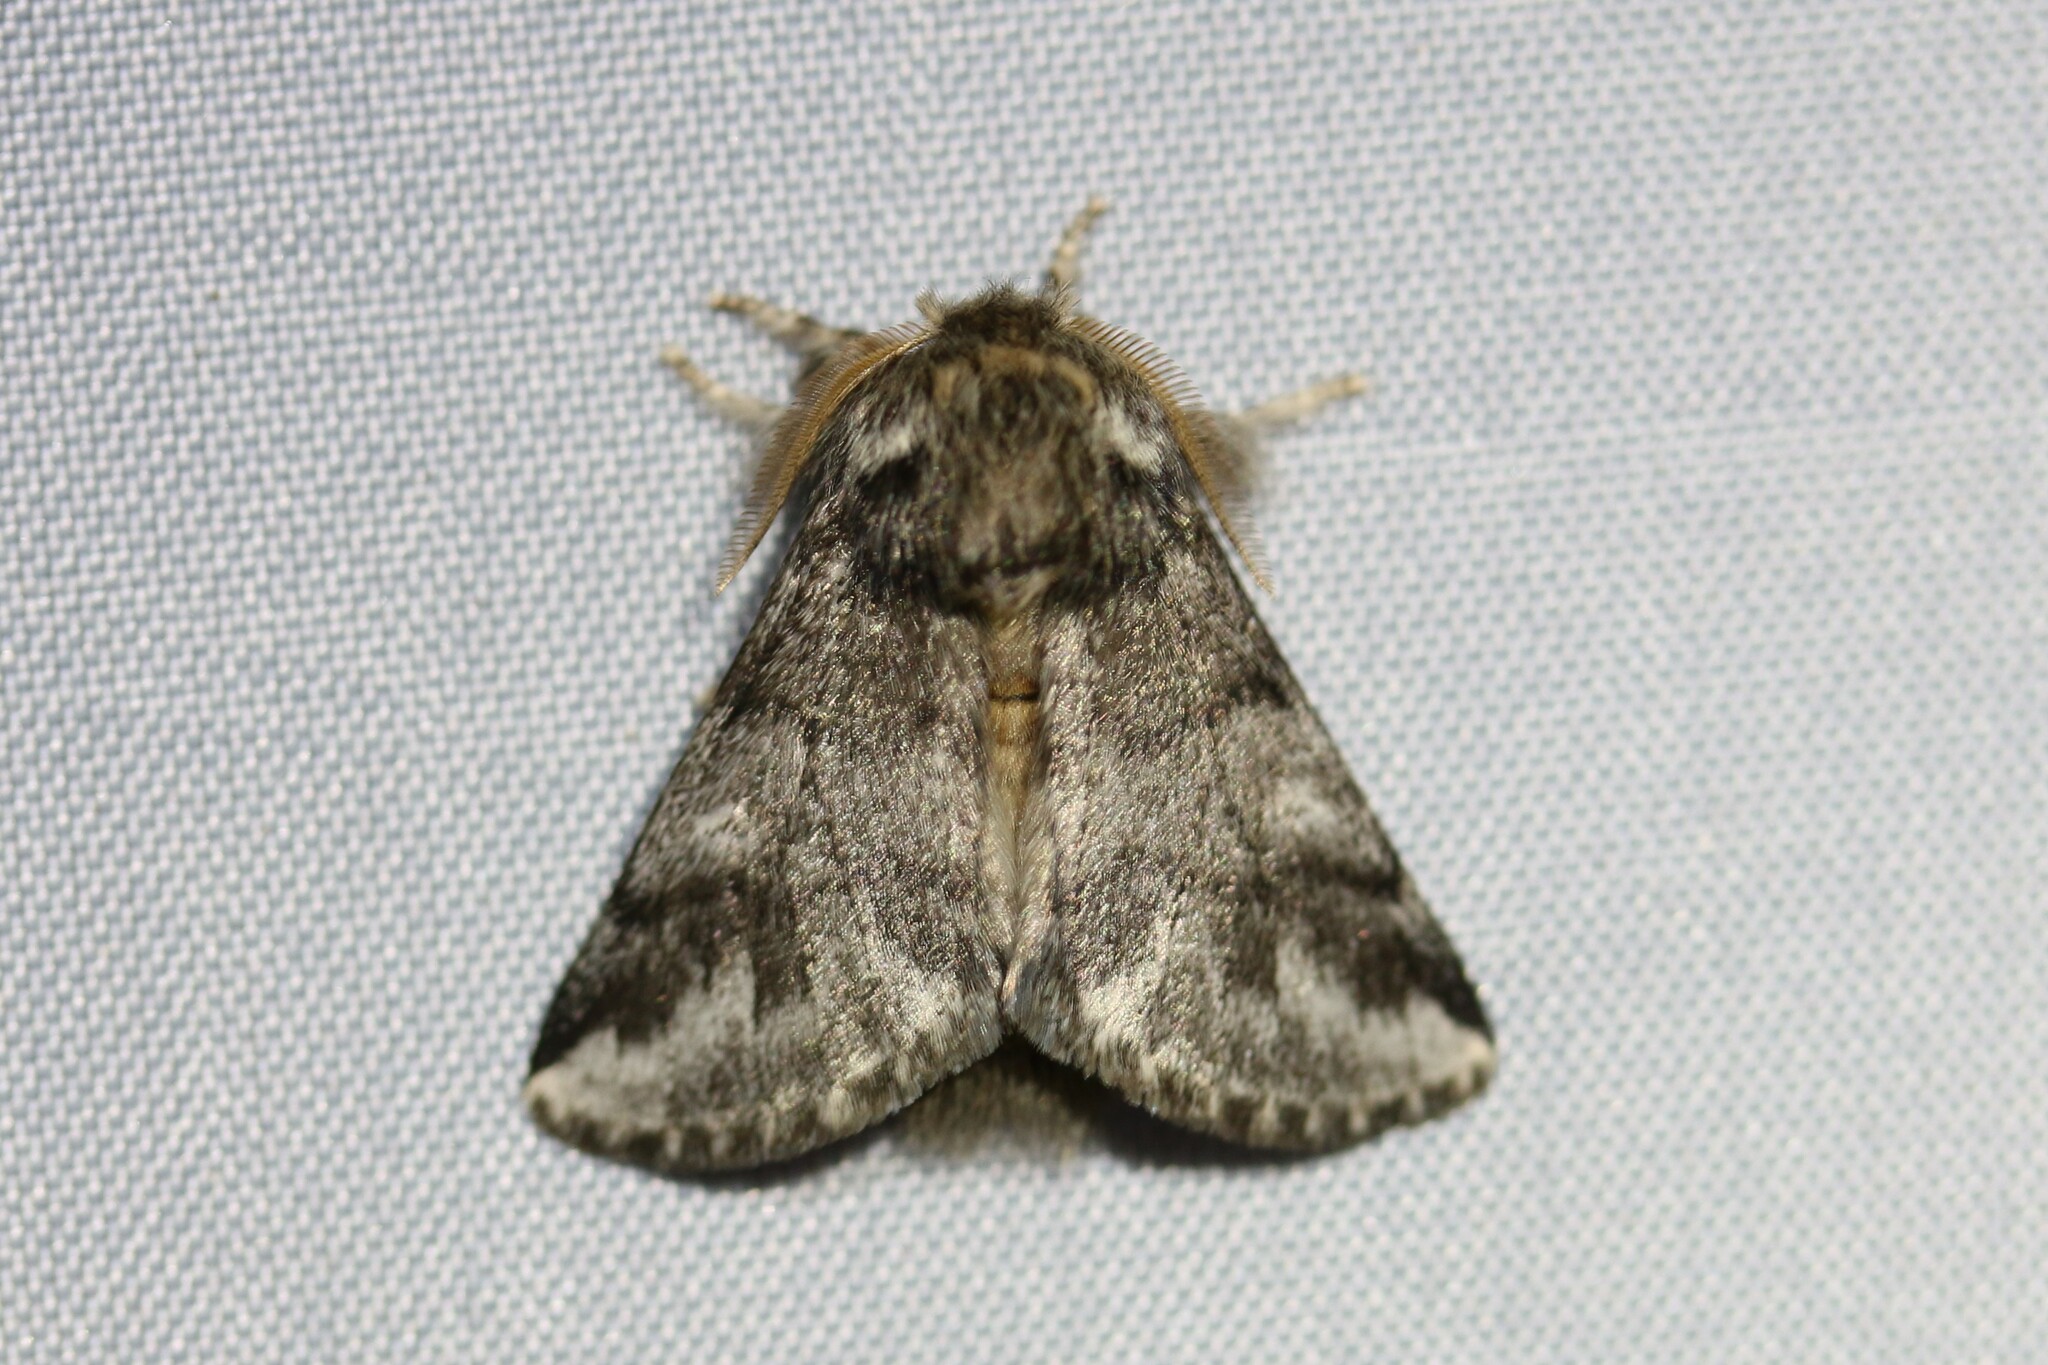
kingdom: Animalia
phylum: Arthropoda
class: Insecta
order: Lepidoptera
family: Notodontidae
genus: Thaumetopoea
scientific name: Thaumetopoea processionea
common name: Oak processionea
